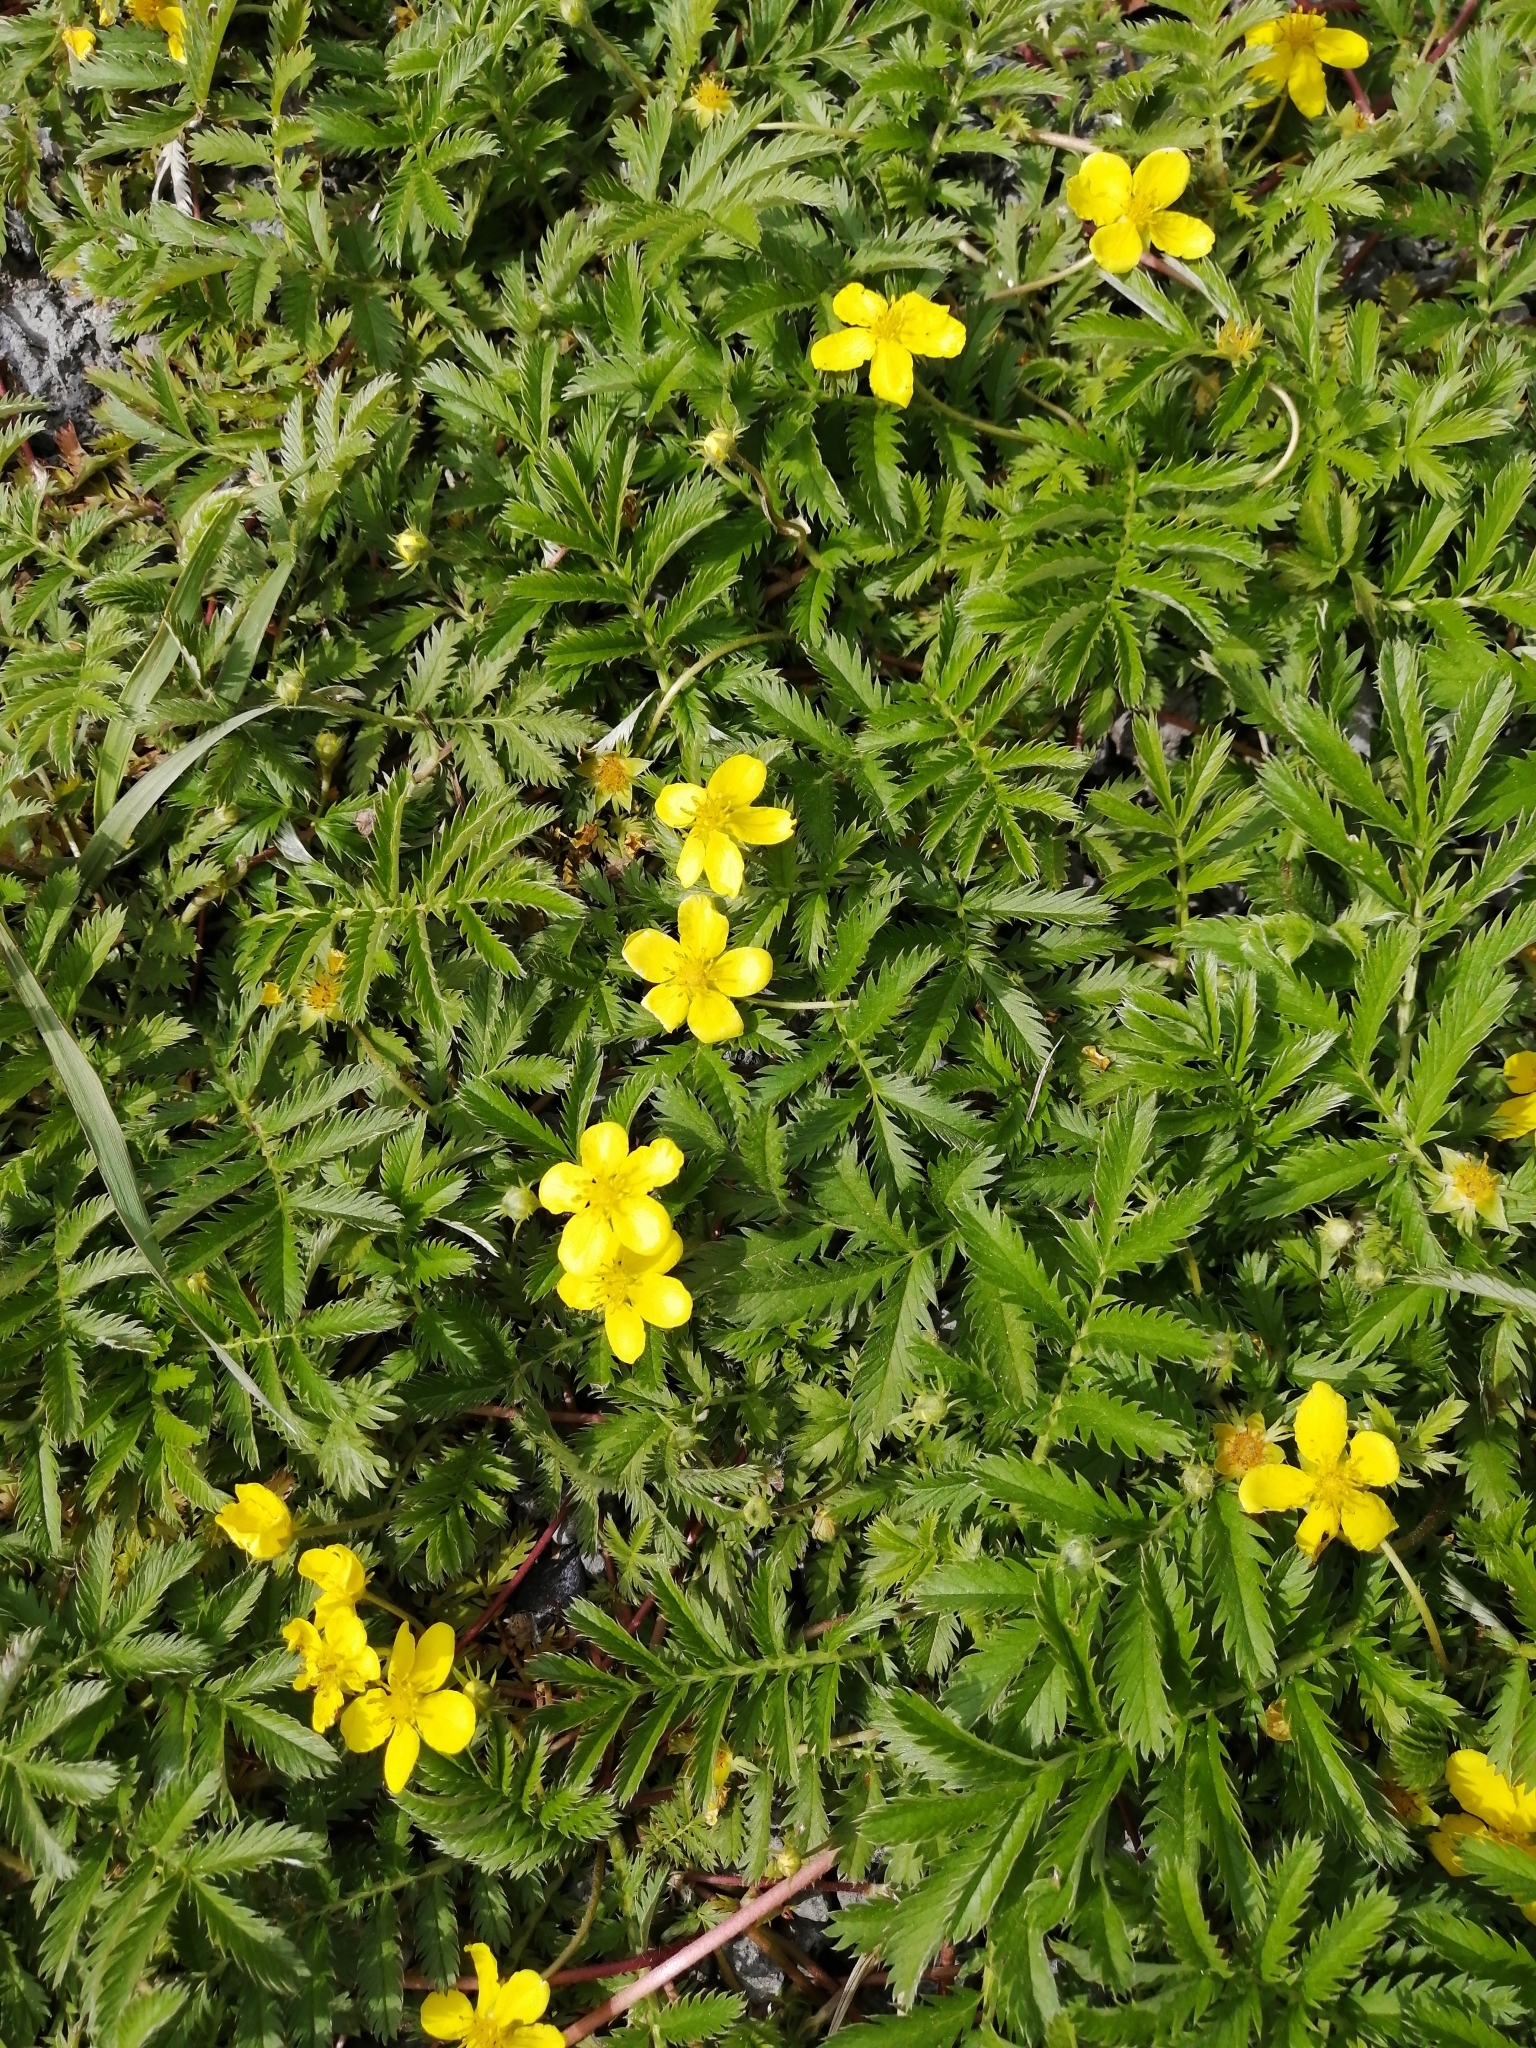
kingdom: Plantae
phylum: Tracheophyta
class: Magnoliopsida
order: Rosales
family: Rosaceae
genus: Argentina
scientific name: Argentina anserina
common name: Common silverweed
